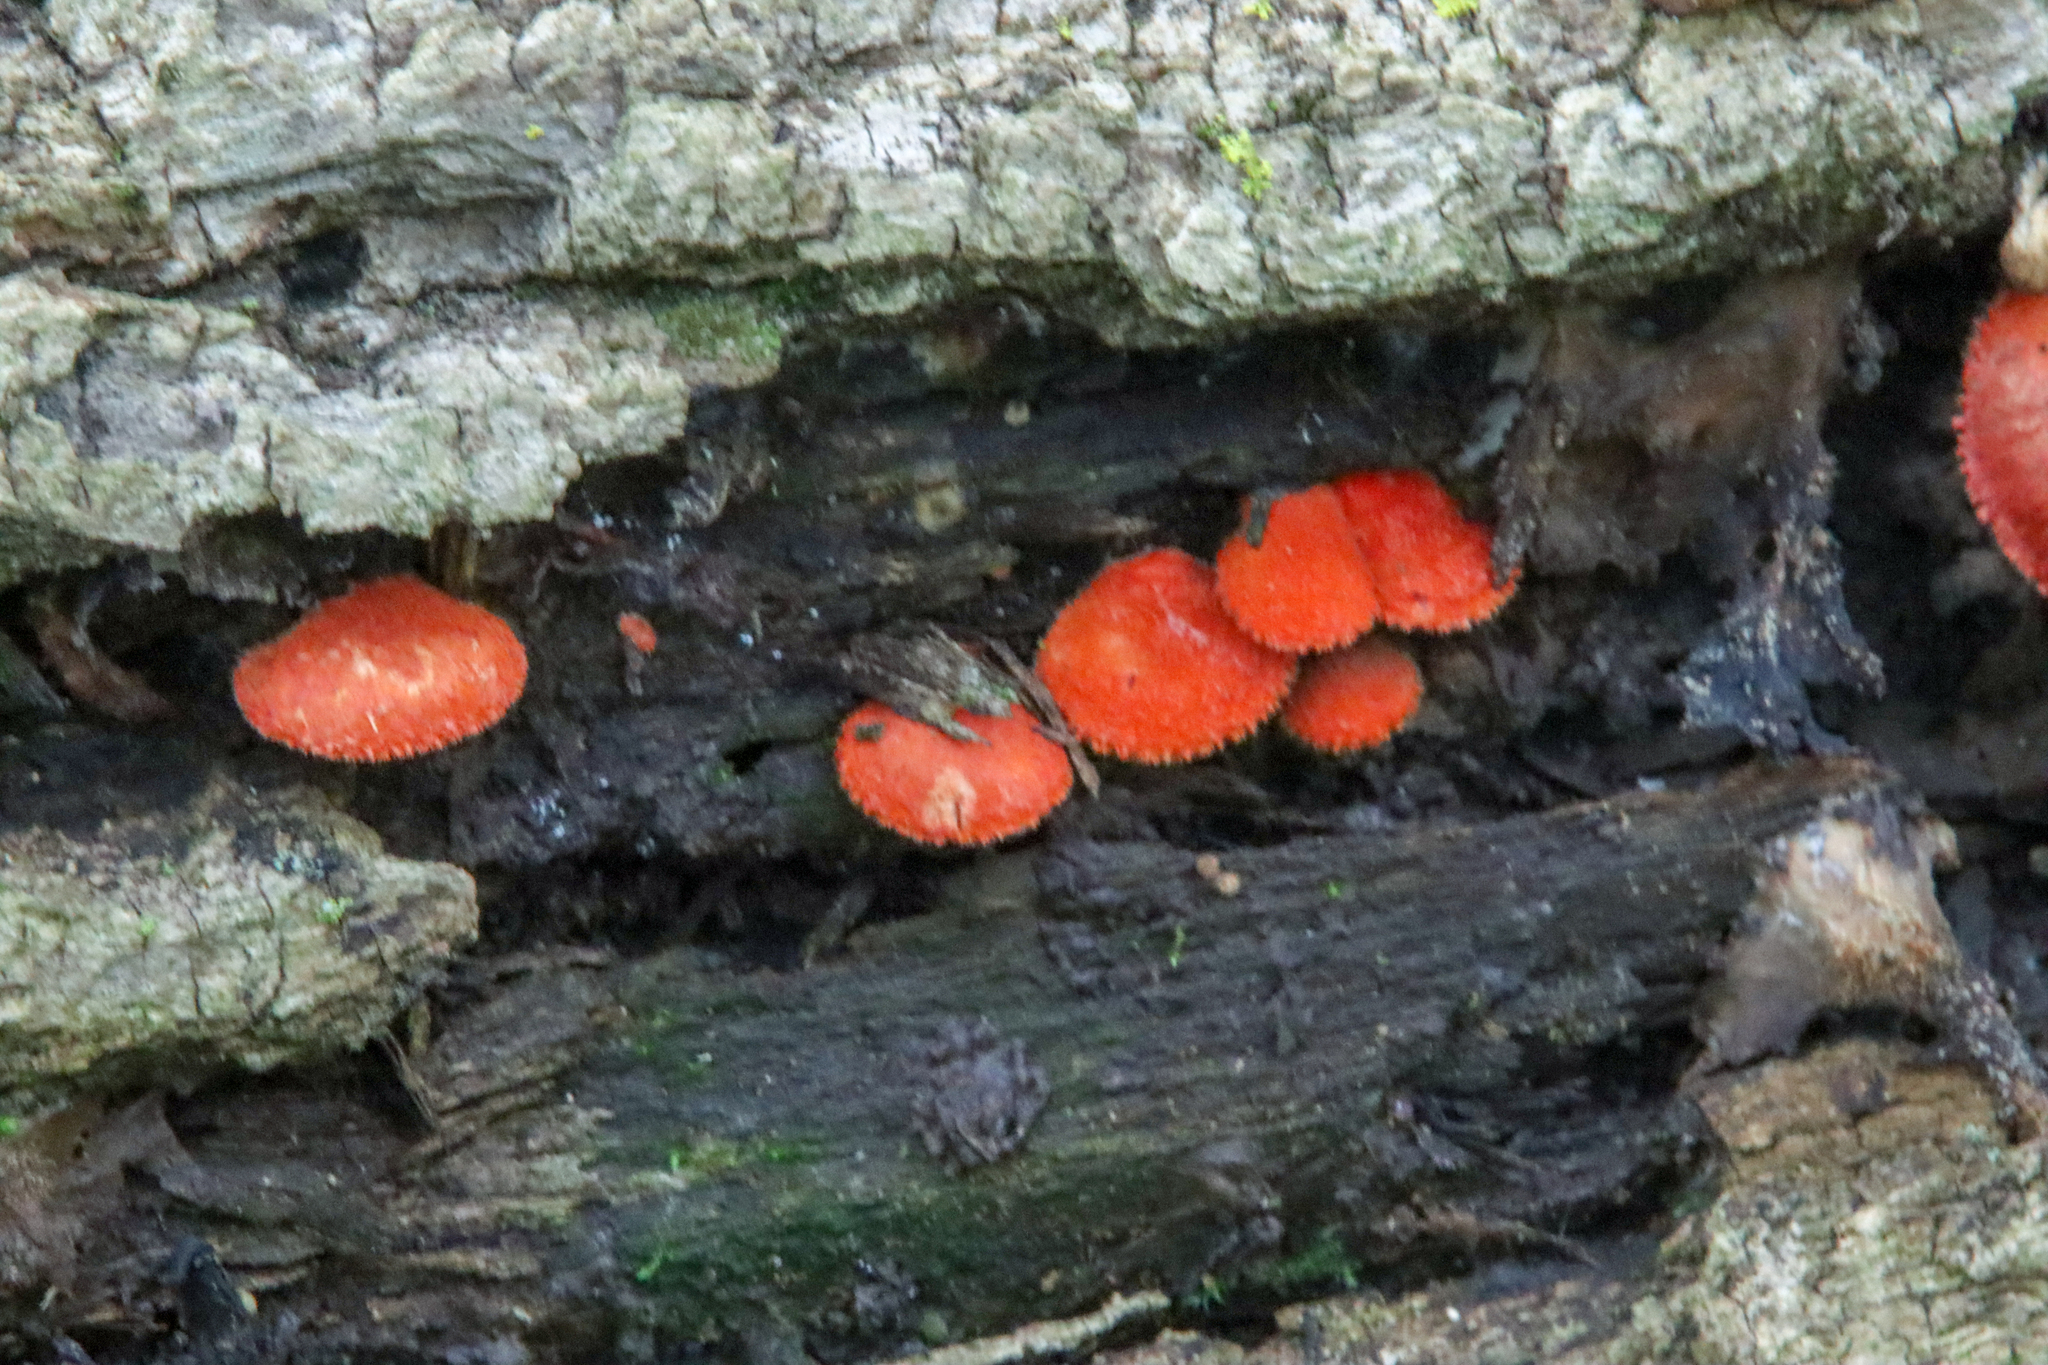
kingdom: Fungi
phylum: Basidiomycota
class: Agaricomycetes
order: Agaricales
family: Crepidotaceae
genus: Crepidotus
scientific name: Crepidotus cinnabarinus
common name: Cinnabar oysterling
